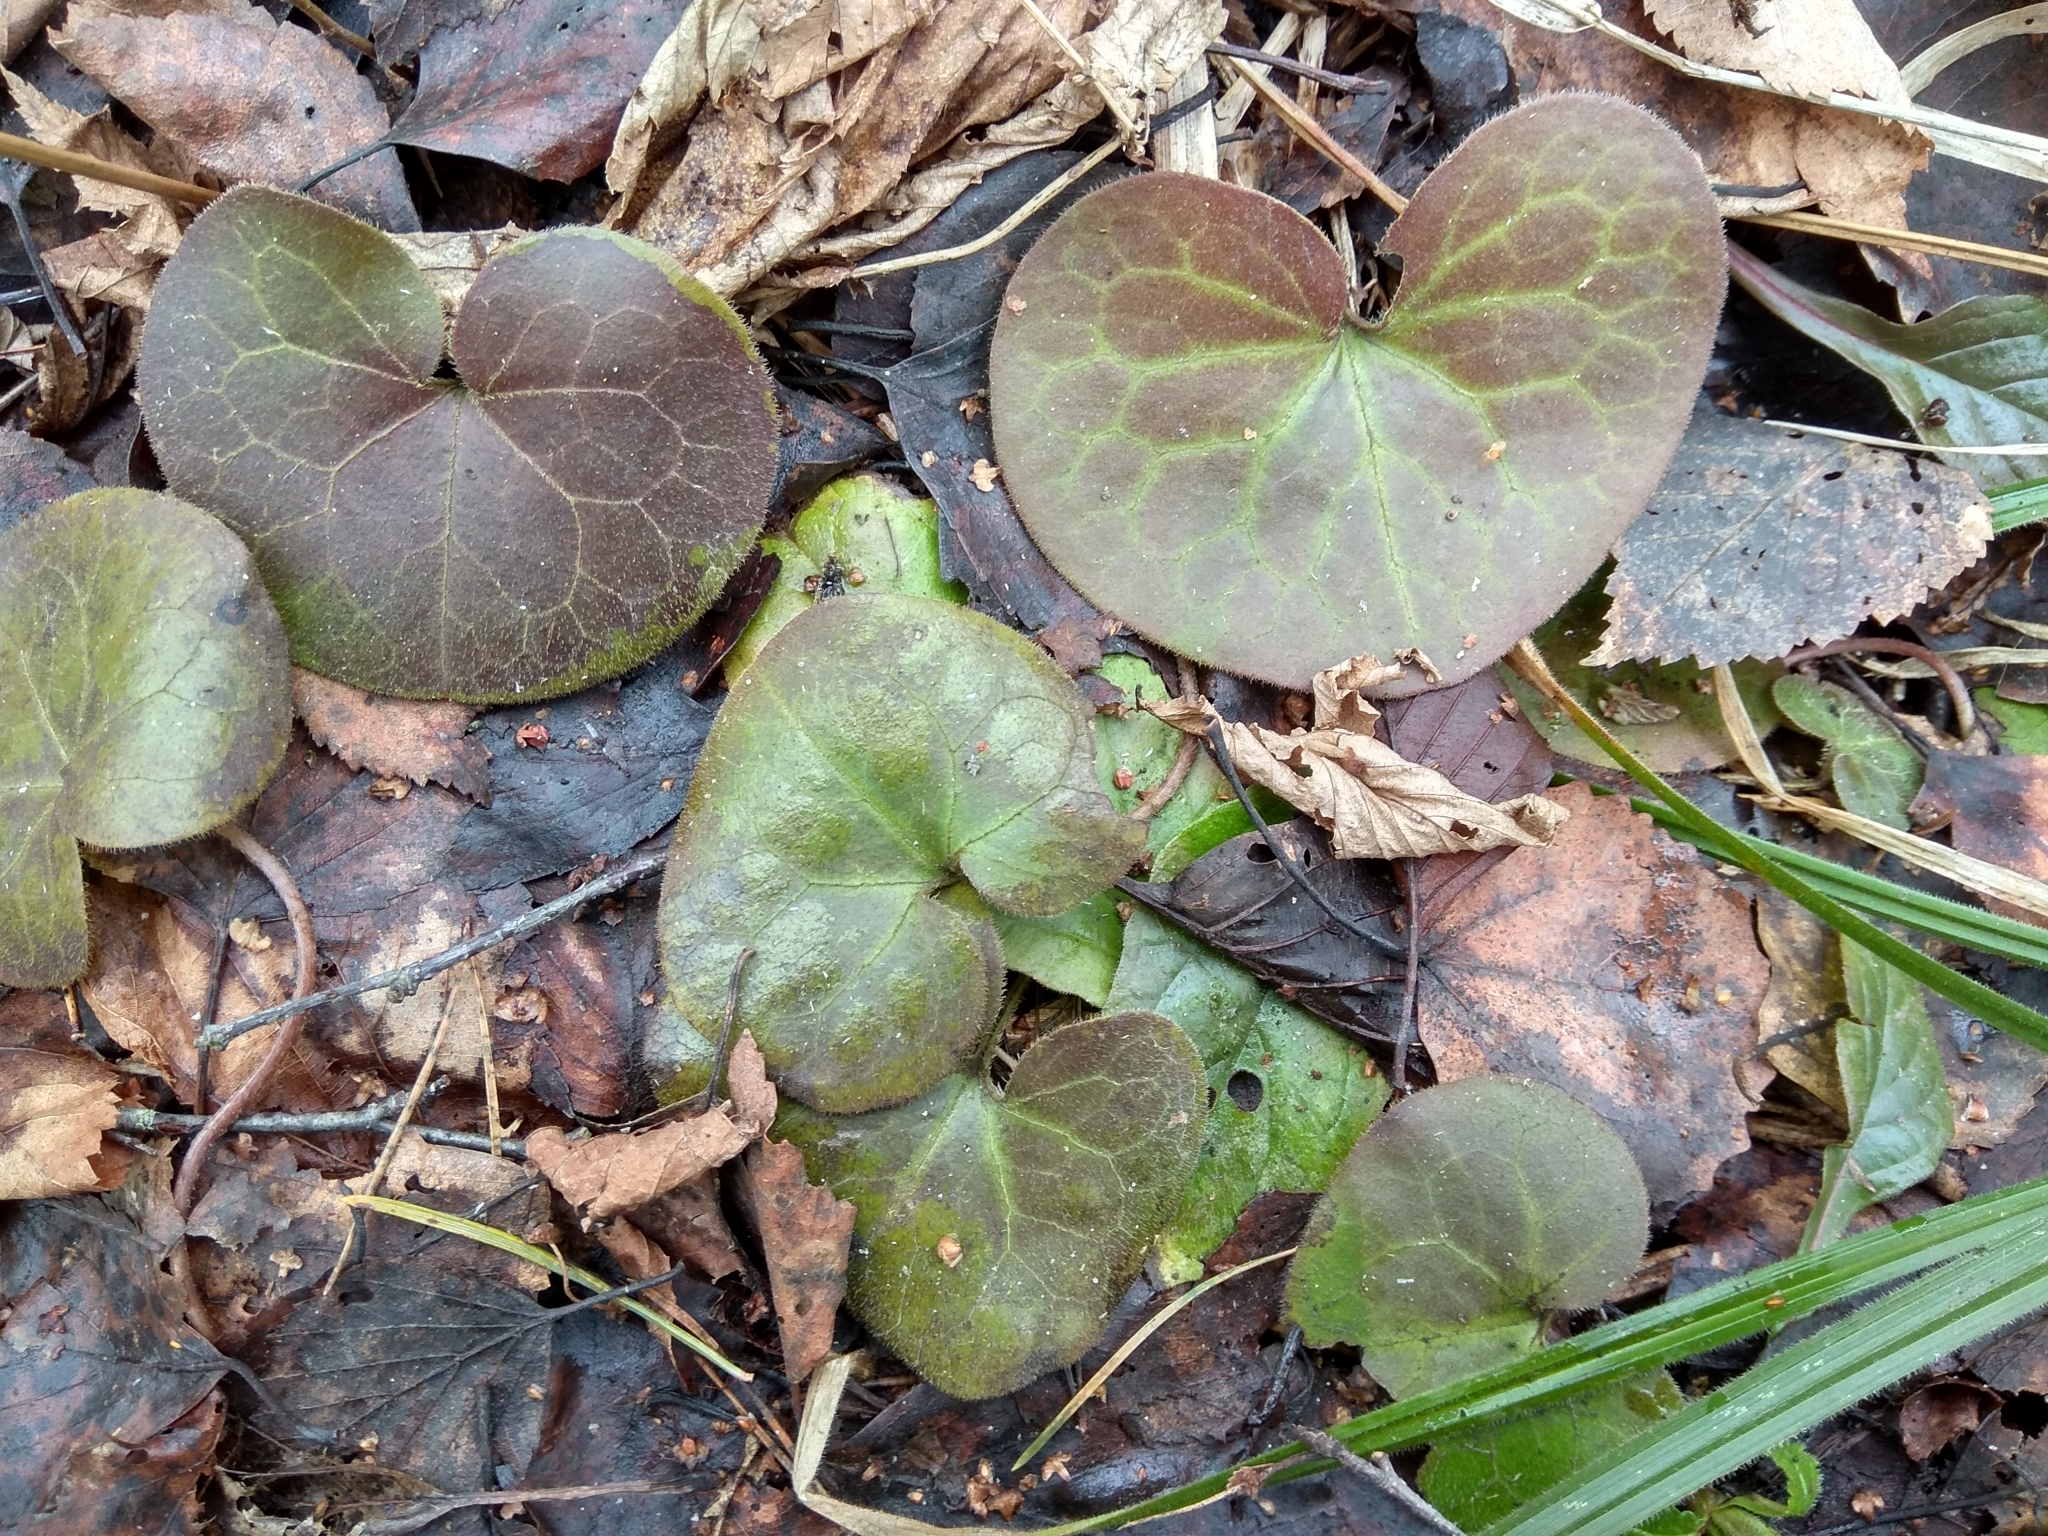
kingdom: Plantae
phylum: Tracheophyta
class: Magnoliopsida
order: Piperales
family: Aristolochiaceae
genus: Asarum
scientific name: Asarum europaeum
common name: Asarabacca
